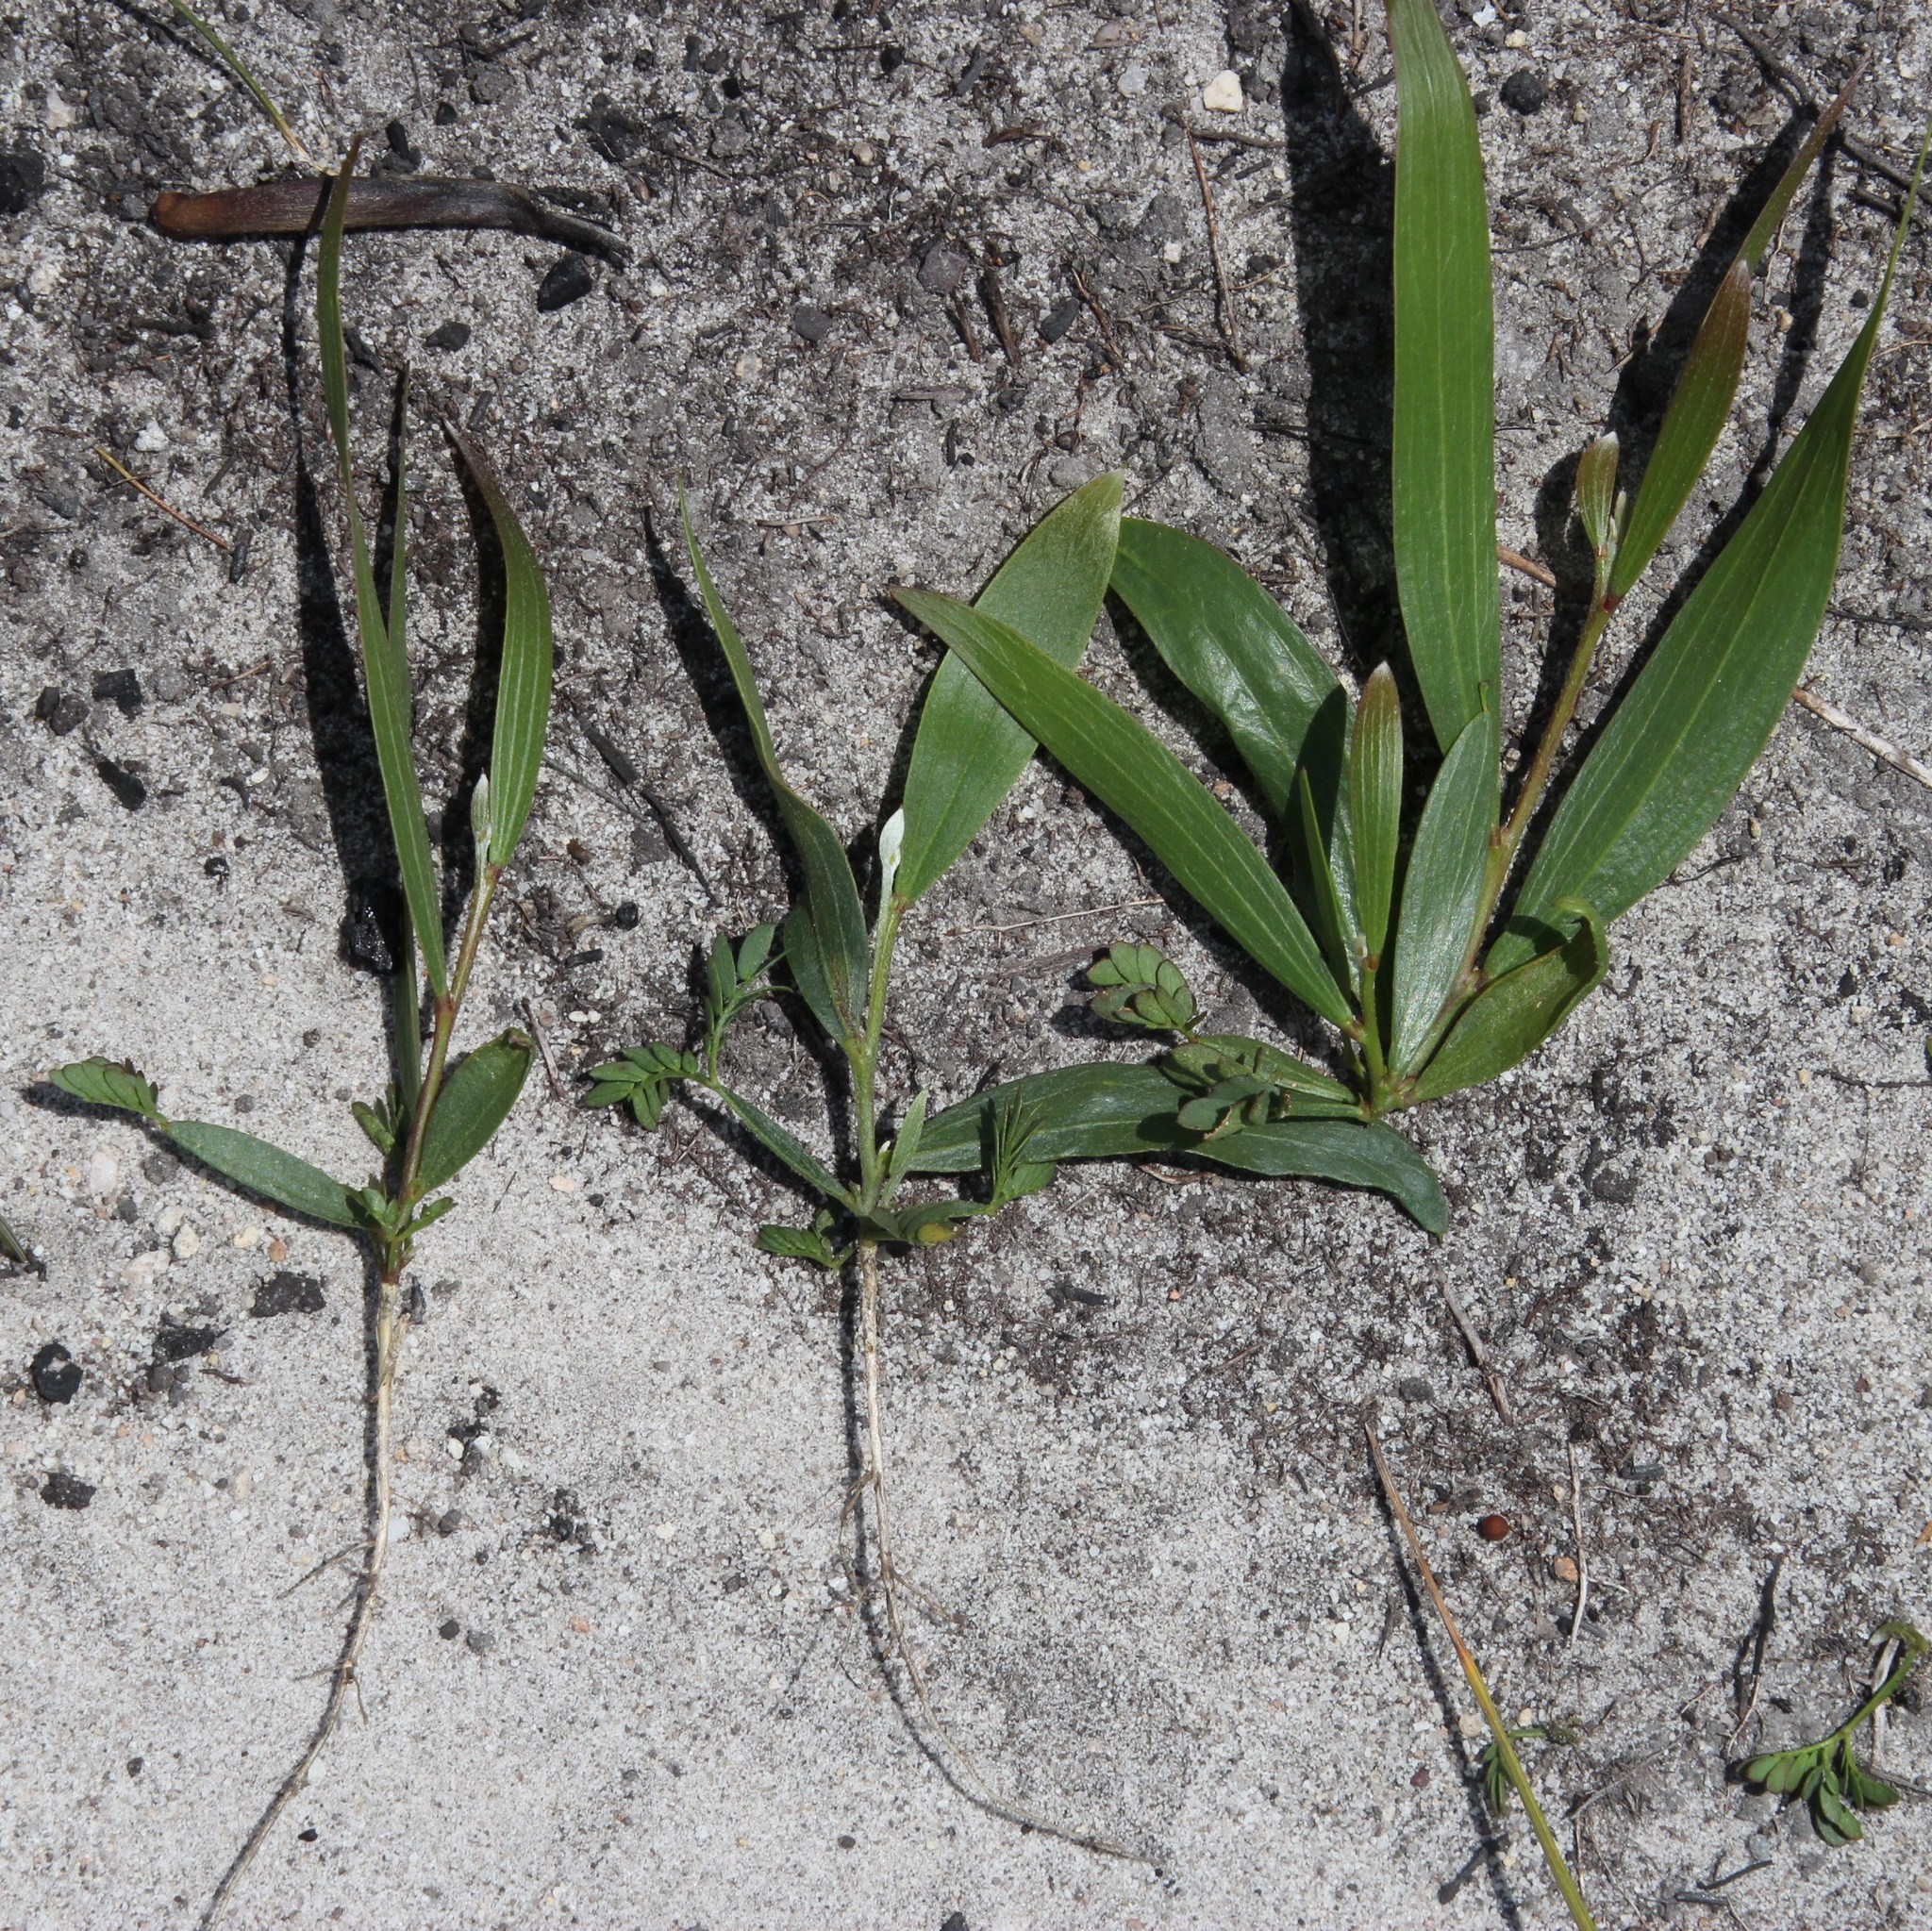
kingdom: Plantae
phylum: Tracheophyta
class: Magnoliopsida
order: Fabales
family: Fabaceae
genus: Acacia
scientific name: Acacia longifolia
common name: Sydney golden wattle
